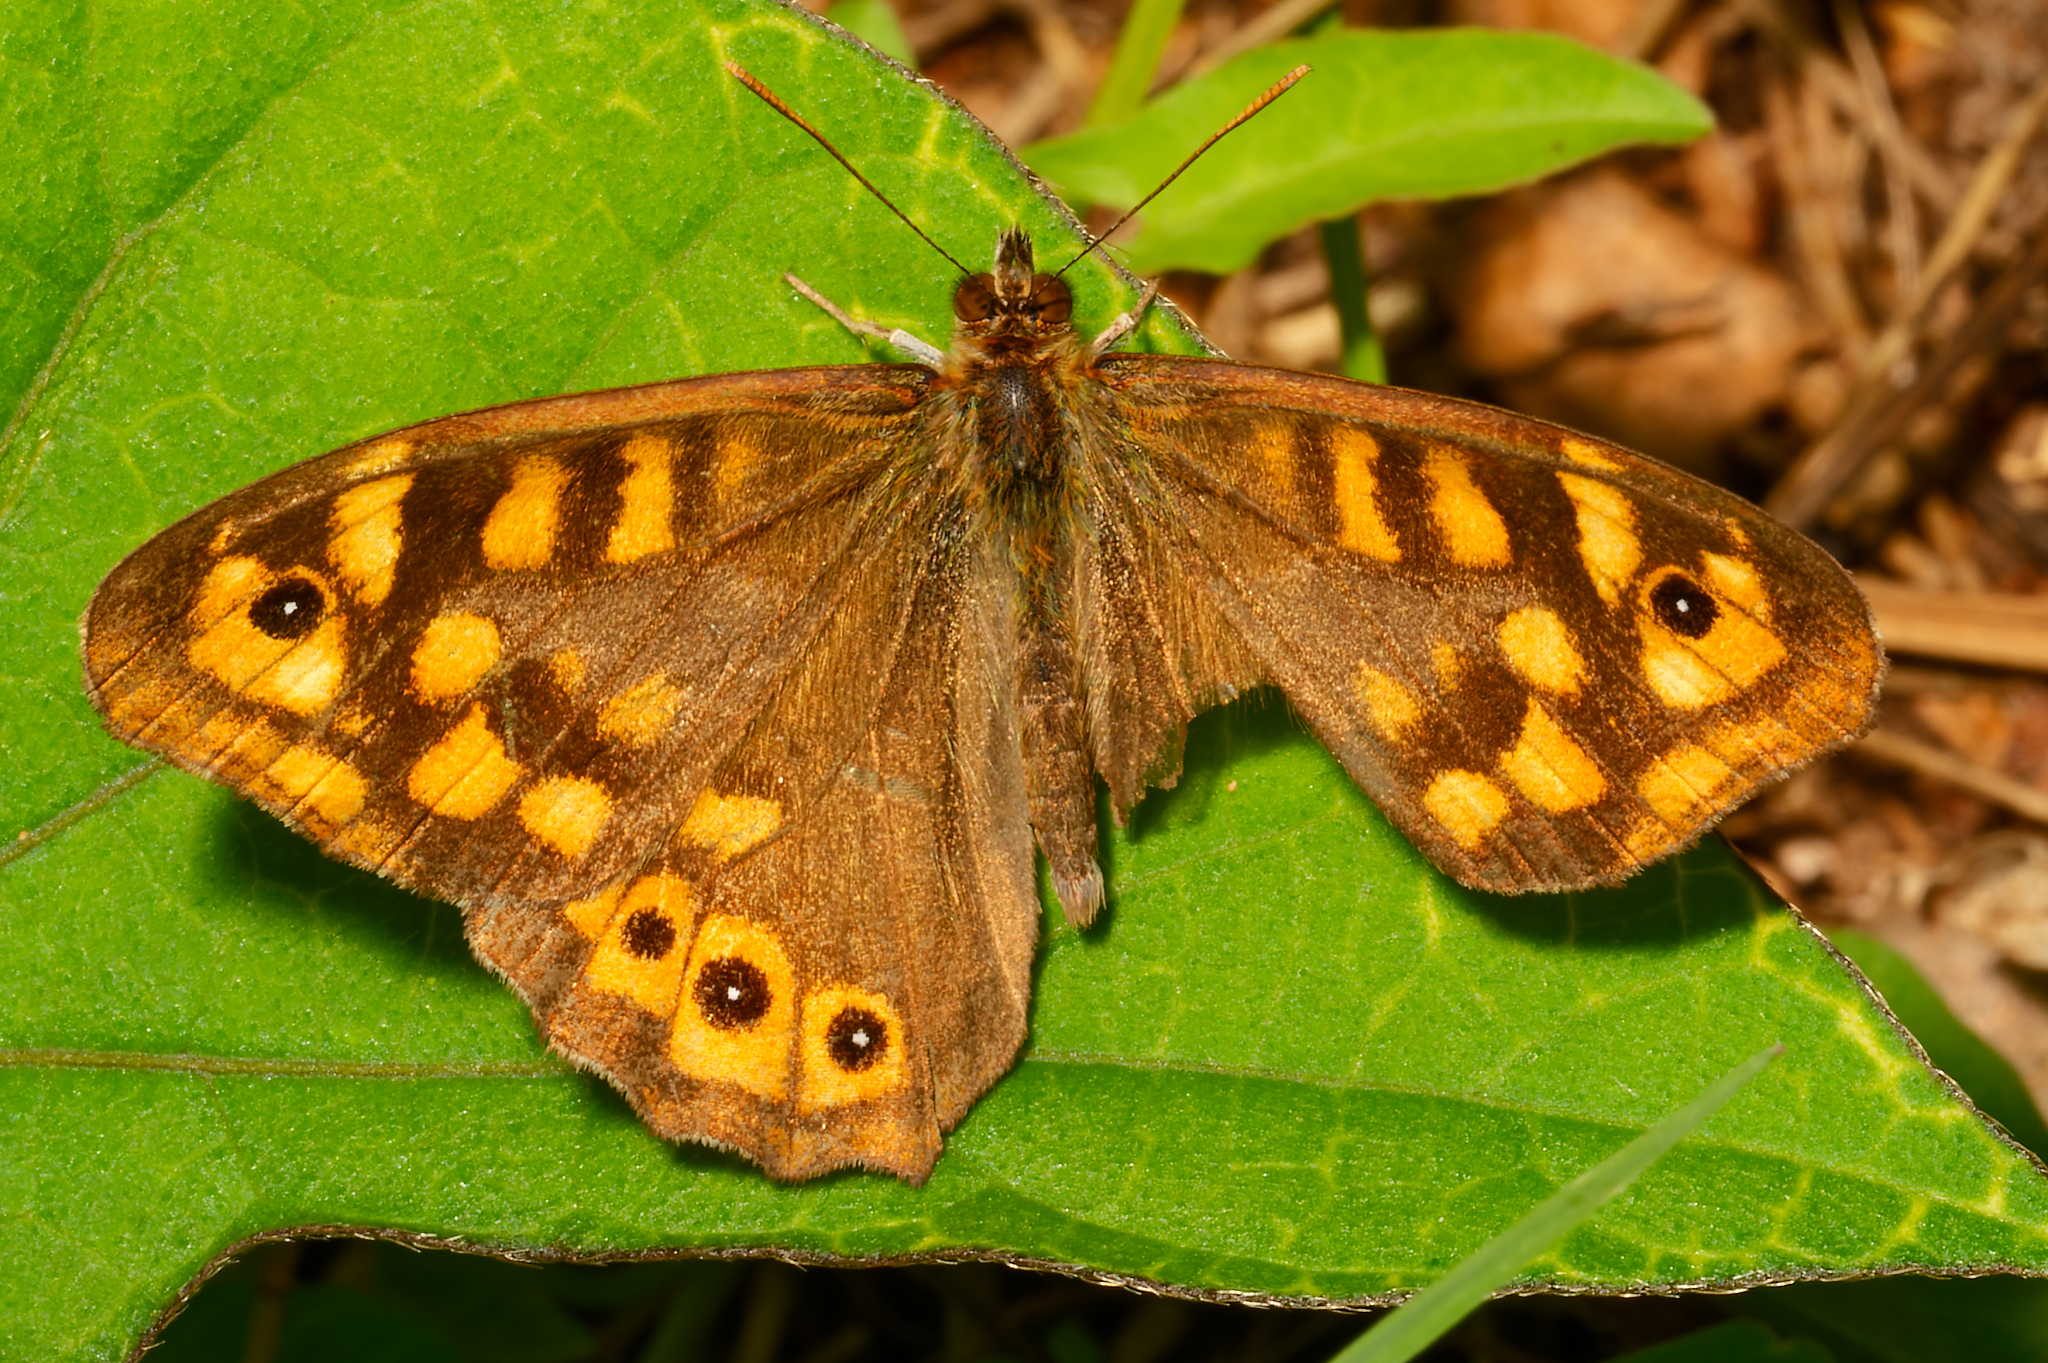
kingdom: Animalia
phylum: Arthropoda
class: Insecta
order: Lepidoptera
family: Nymphalidae
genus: Pararge
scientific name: Pararge aegeria
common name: Speckled wood
